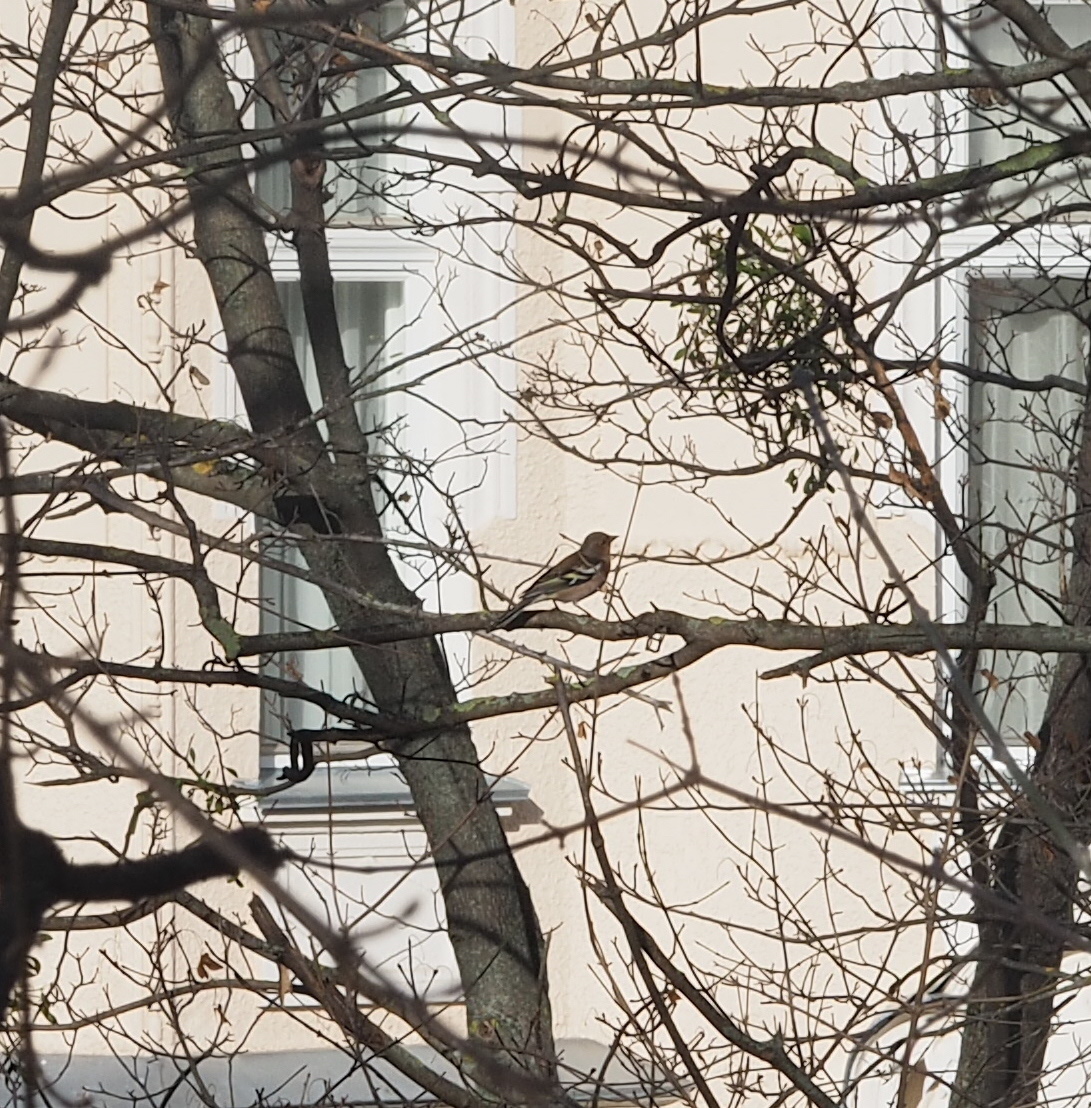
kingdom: Animalia
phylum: Chordata
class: Aves
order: Passeriformes
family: Fringillidae
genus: Fringilla
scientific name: Fringilla coelebs
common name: Common chaffinch
